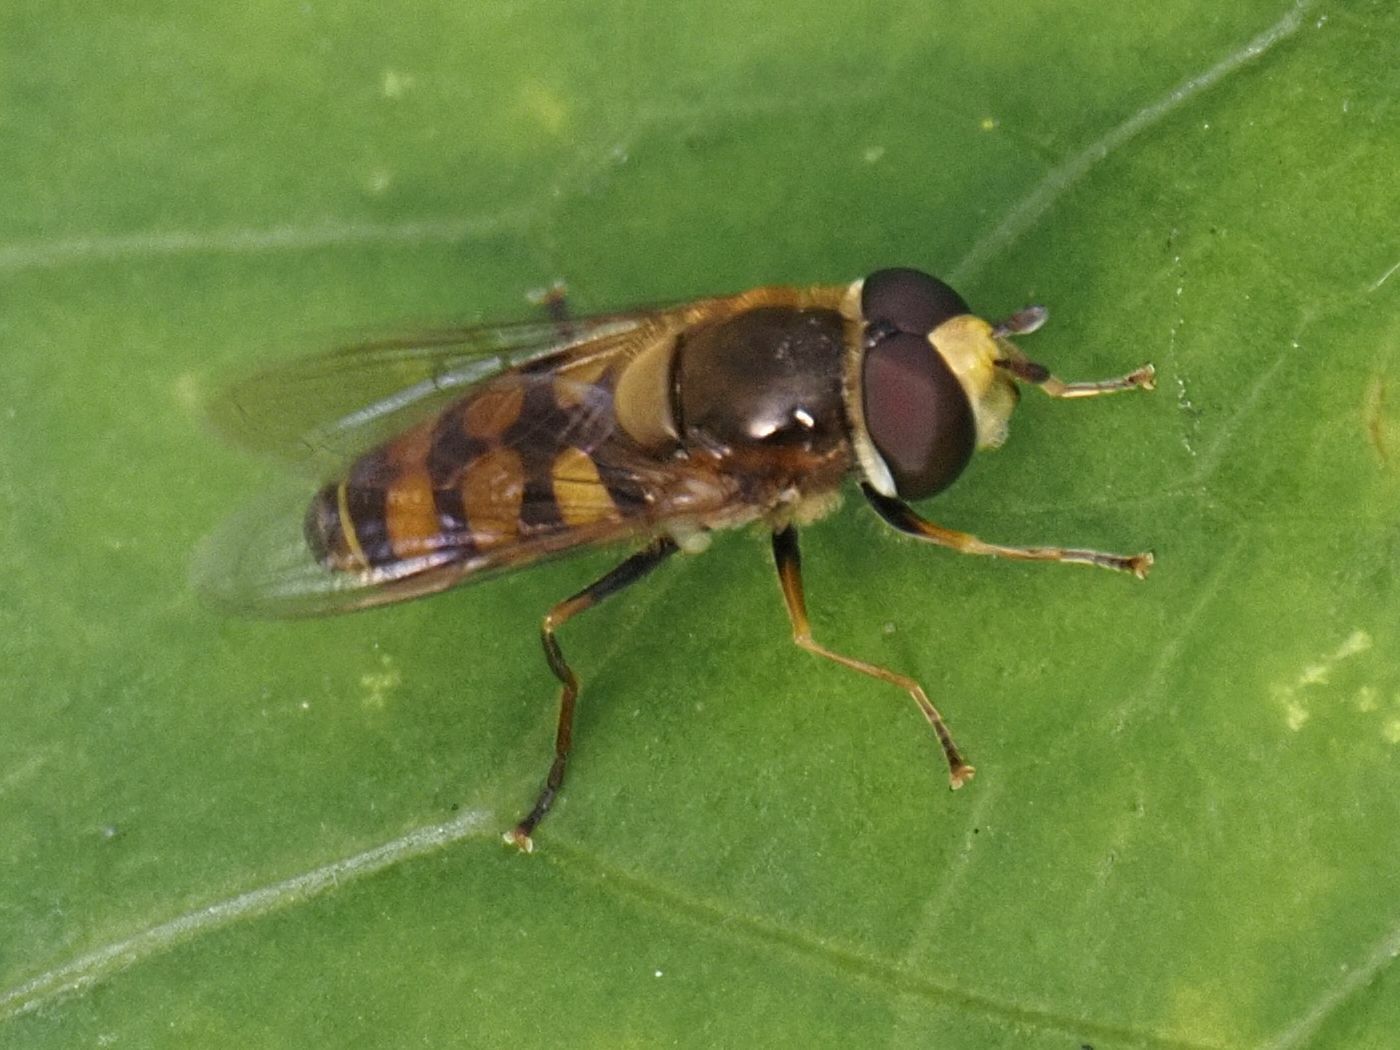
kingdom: Animalia
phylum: Arthropoda
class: Insecta
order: Diptera
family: Syrphidae
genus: Eupeodes
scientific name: Eupeodes corollae
